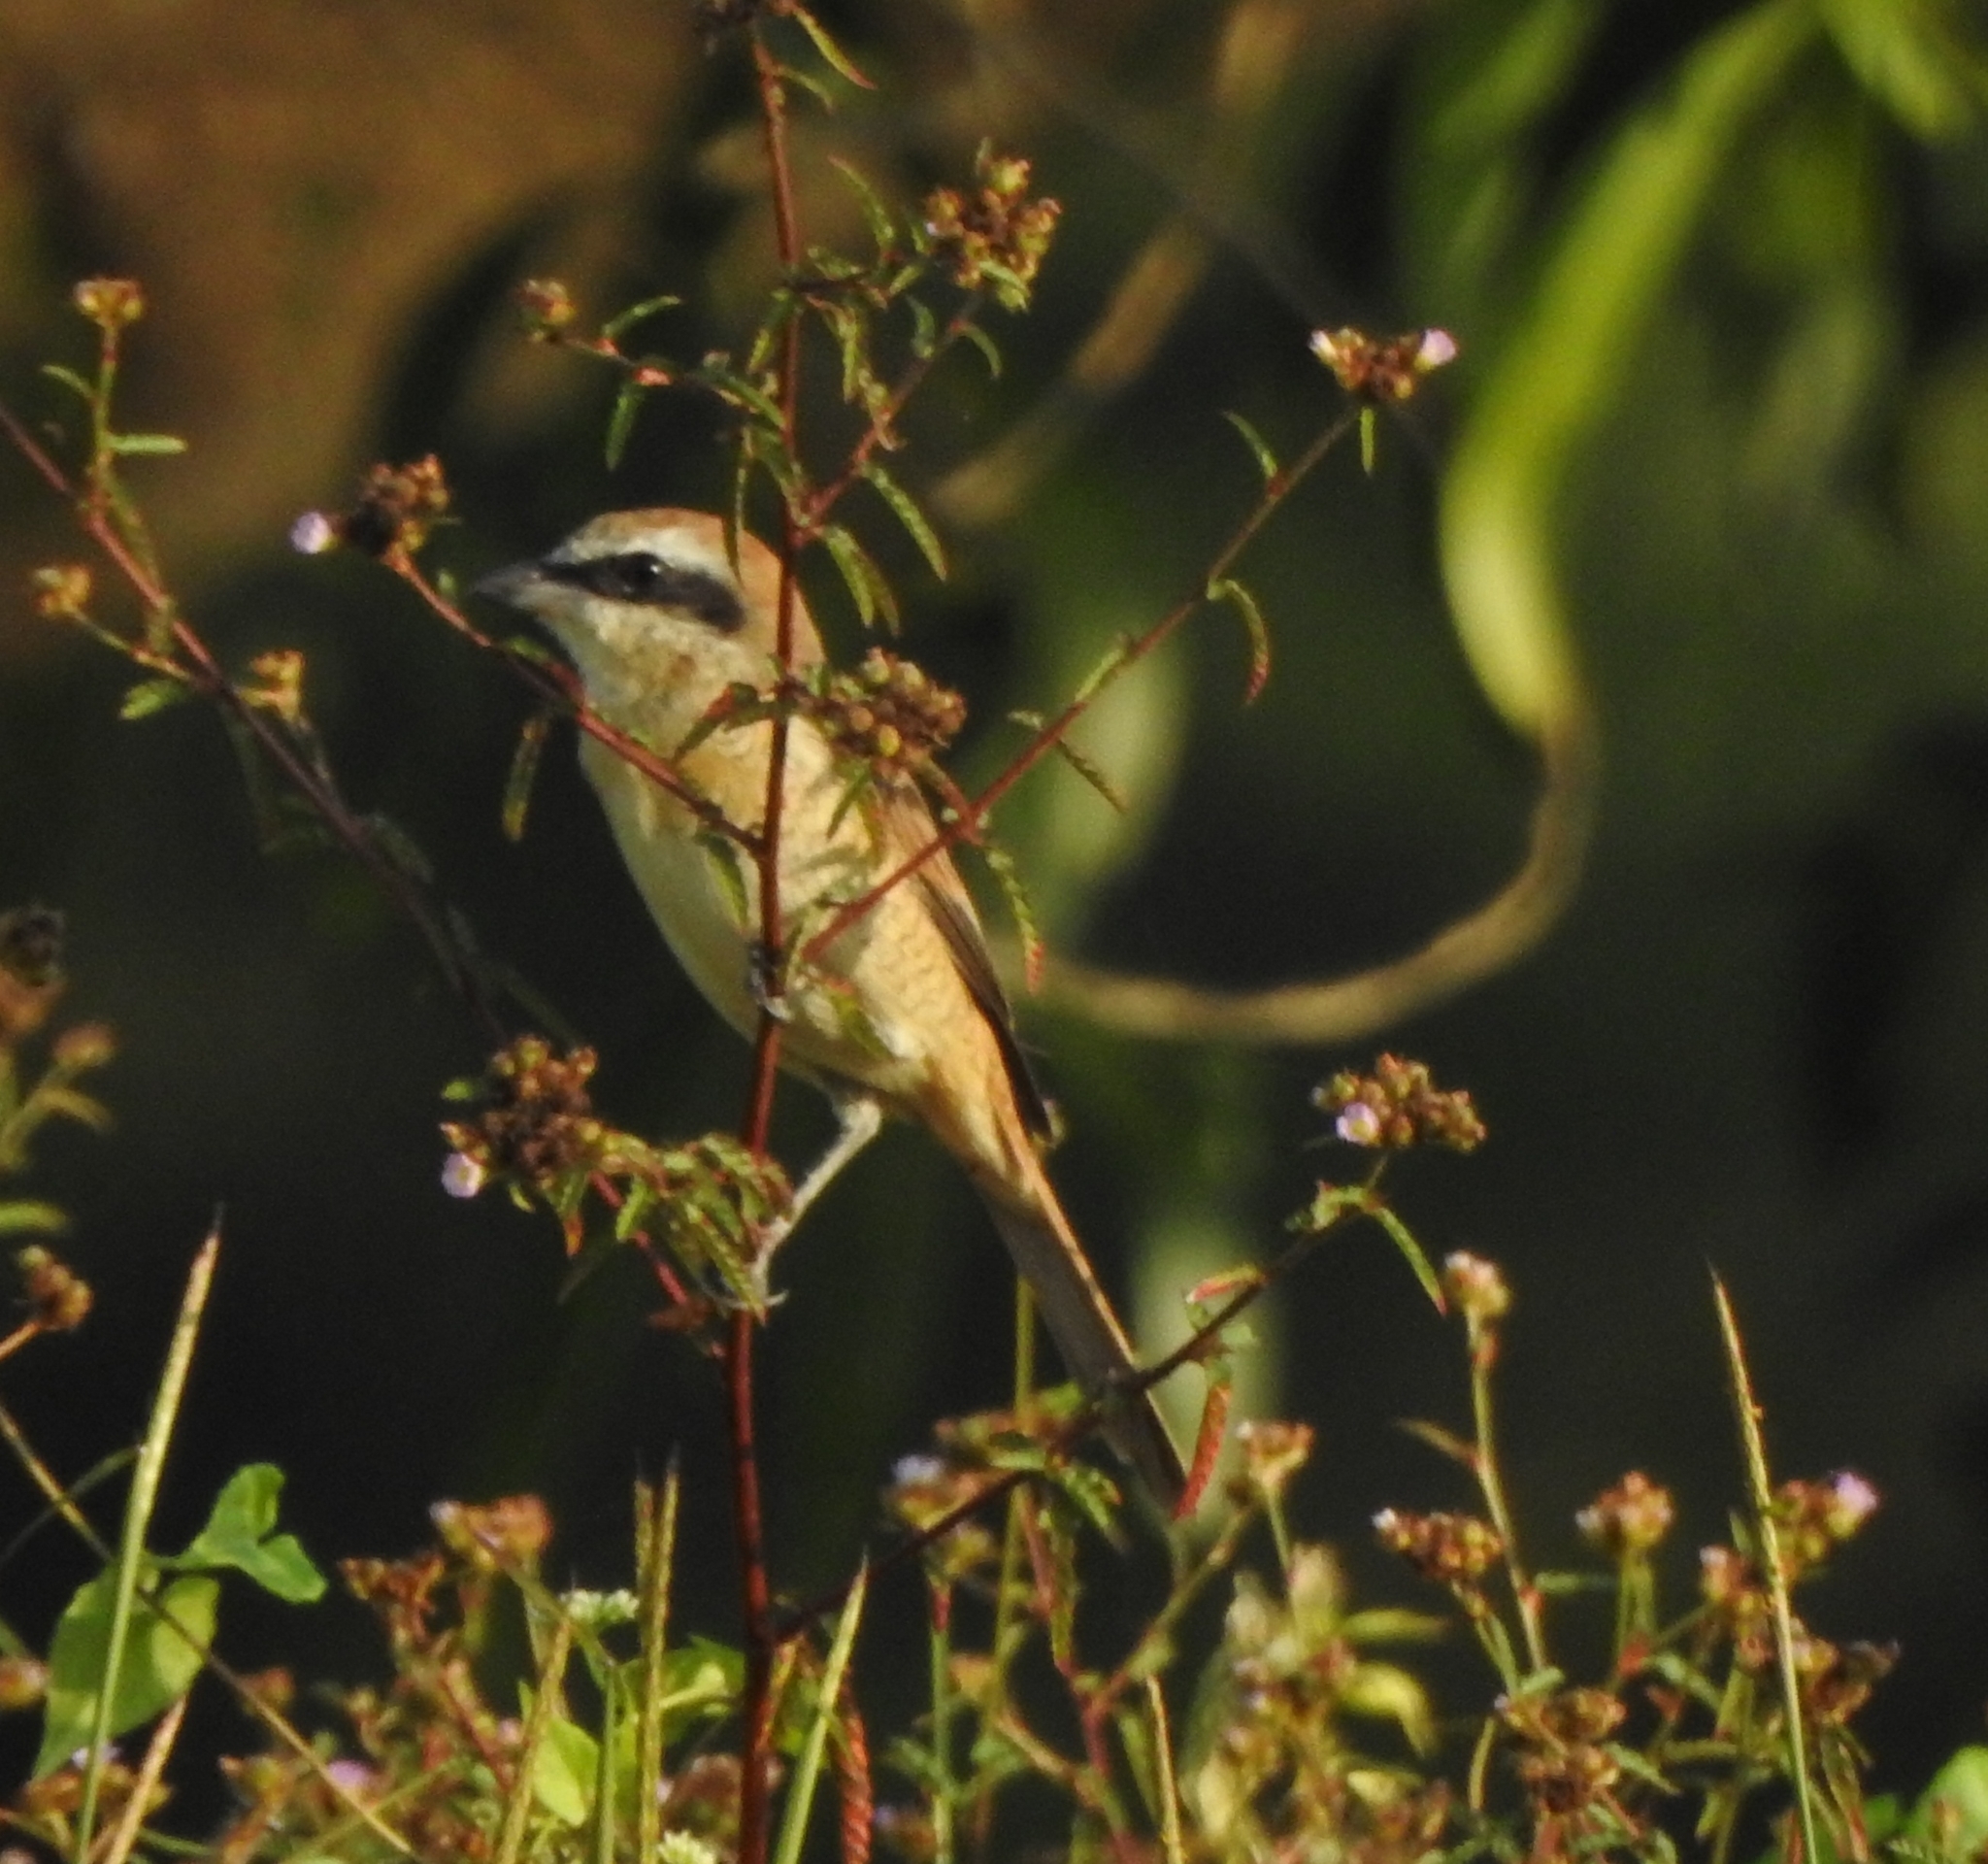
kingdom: Animalia
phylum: Chordata
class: Aves
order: Passeriformes
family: Laniidae
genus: Lanius
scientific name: Lanius cristatus
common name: Brown shrike
